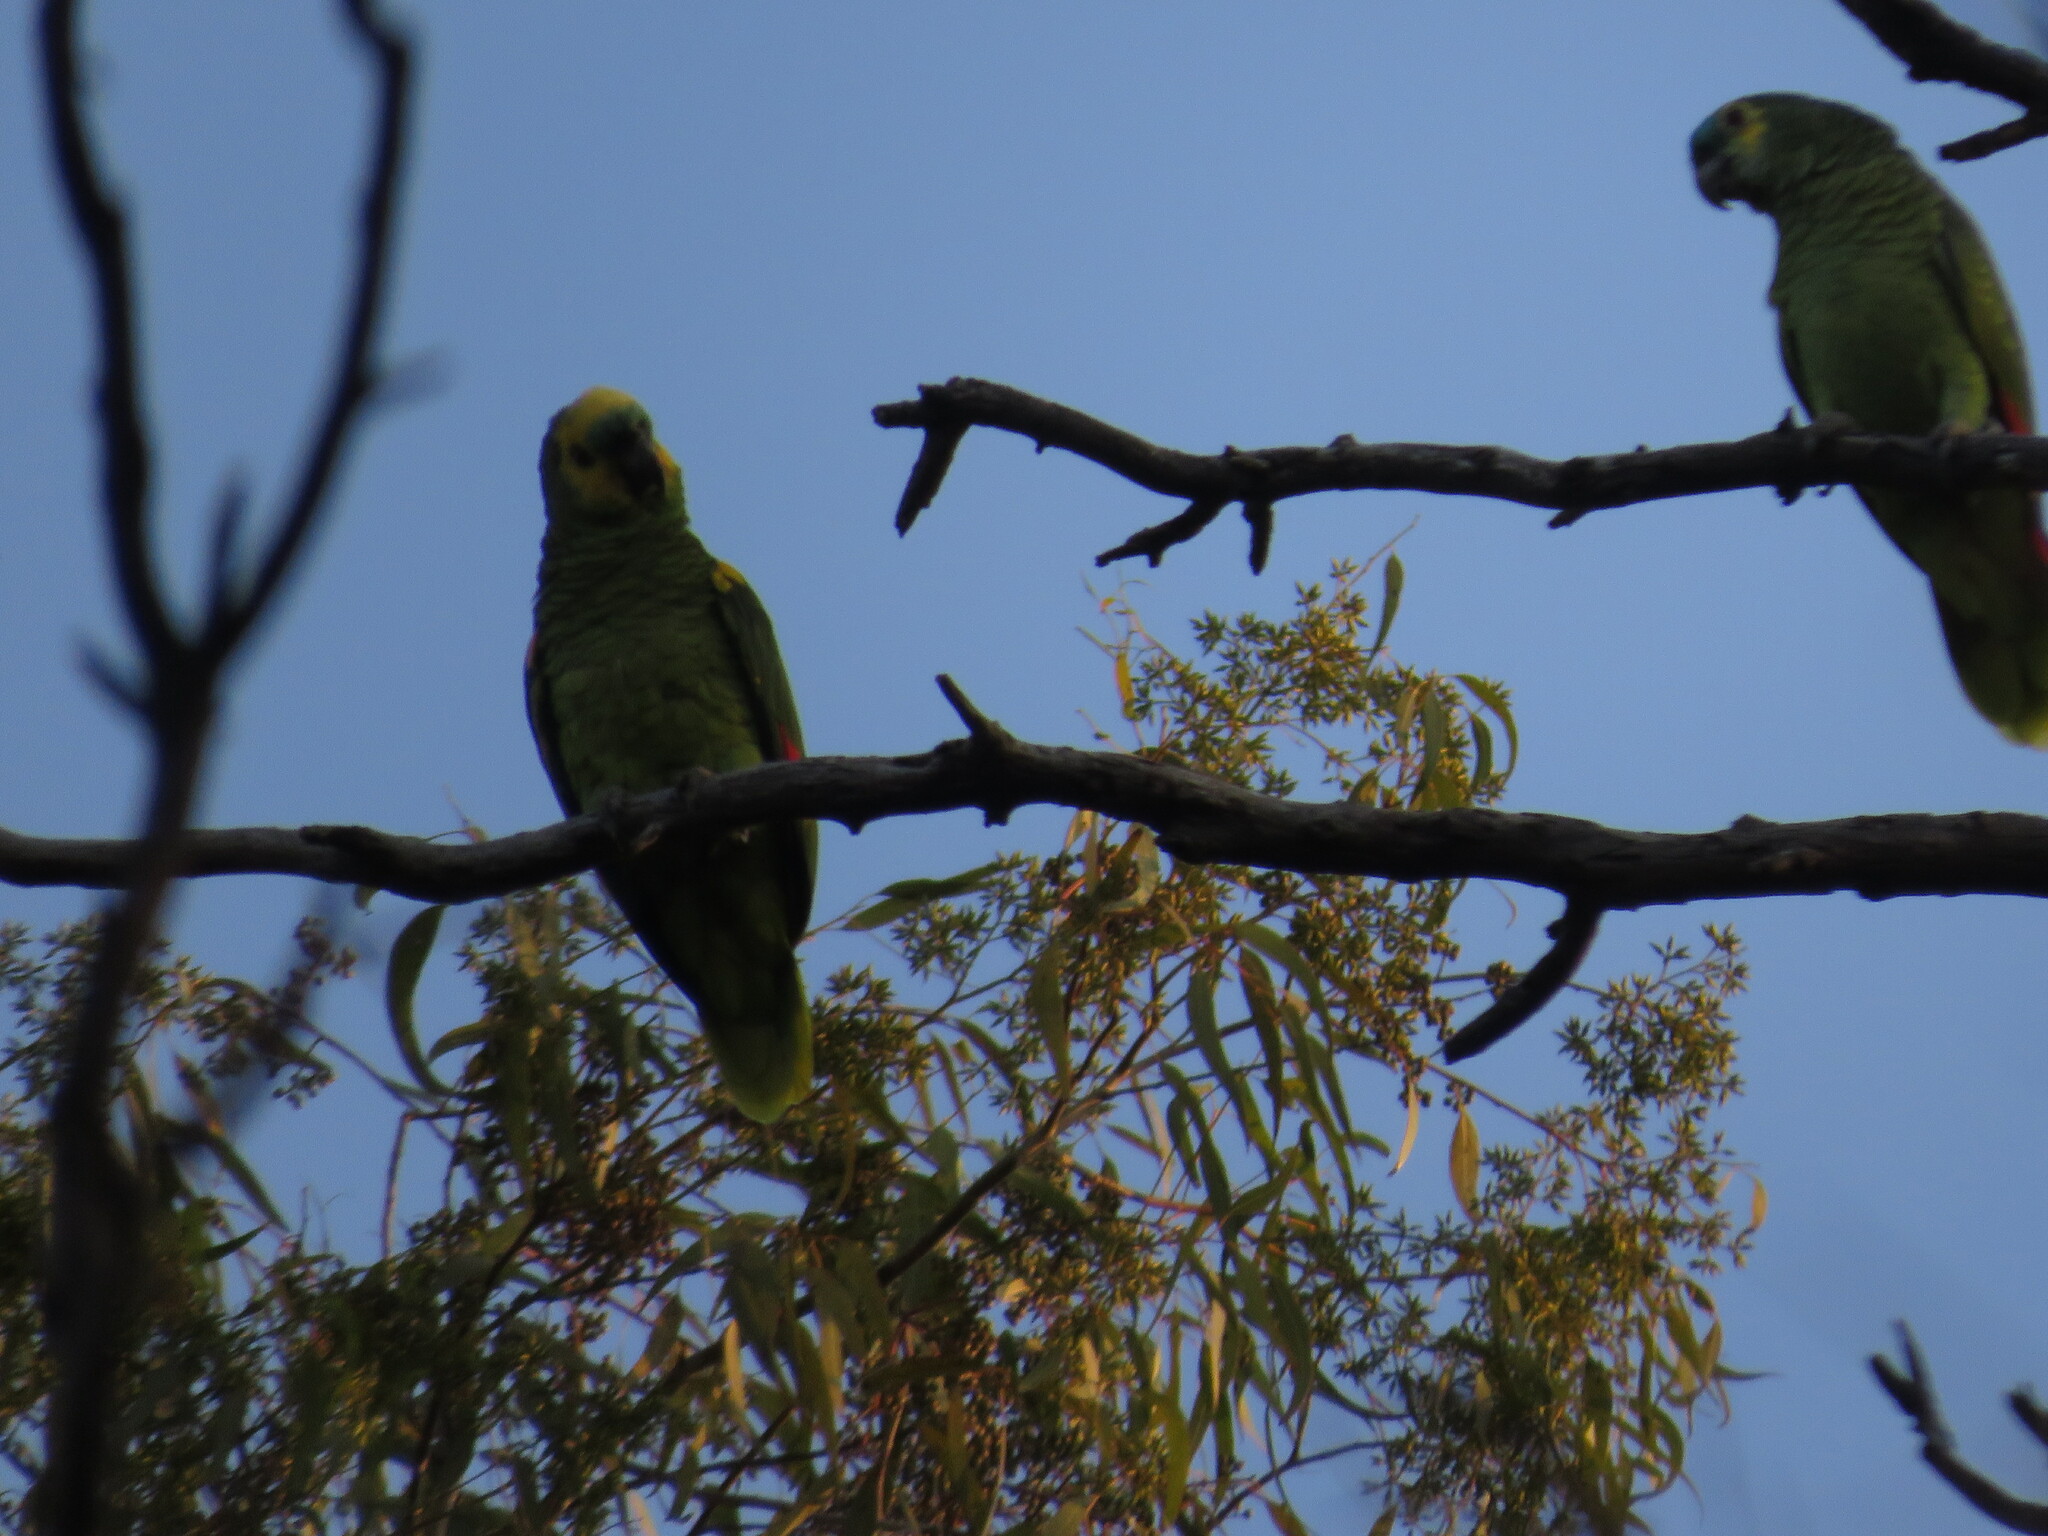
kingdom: Animalia
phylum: Chordata
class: Aves
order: Psittaciformes
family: Psittacidae
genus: Amazona
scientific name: Amazona aestiva
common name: Turquoise-fronted amazon
